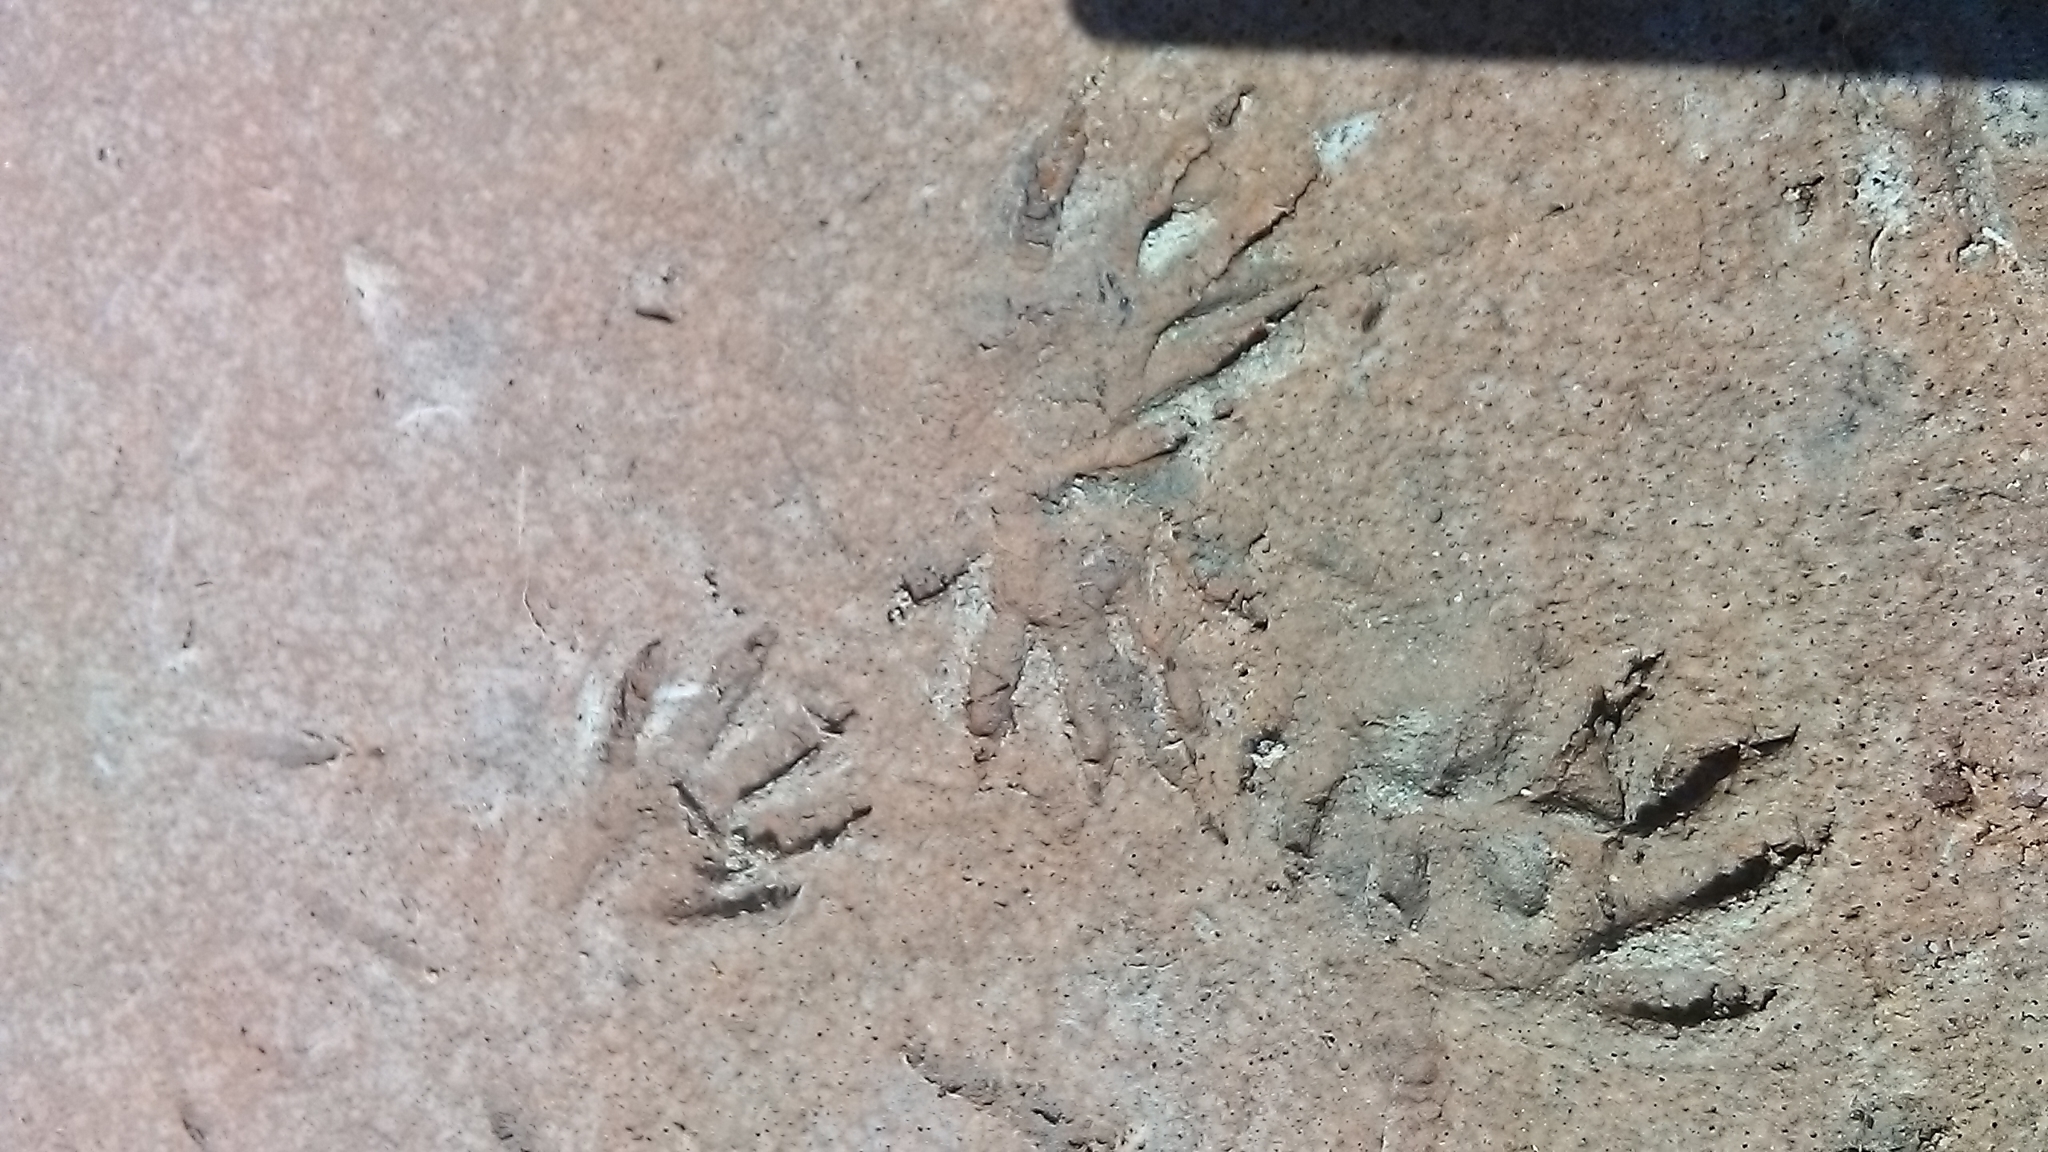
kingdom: Animalia
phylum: Chordata
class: Mammalia
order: Carnivora
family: Procyonidae
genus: Procyon
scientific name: Procyon lotor
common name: Raccoon
